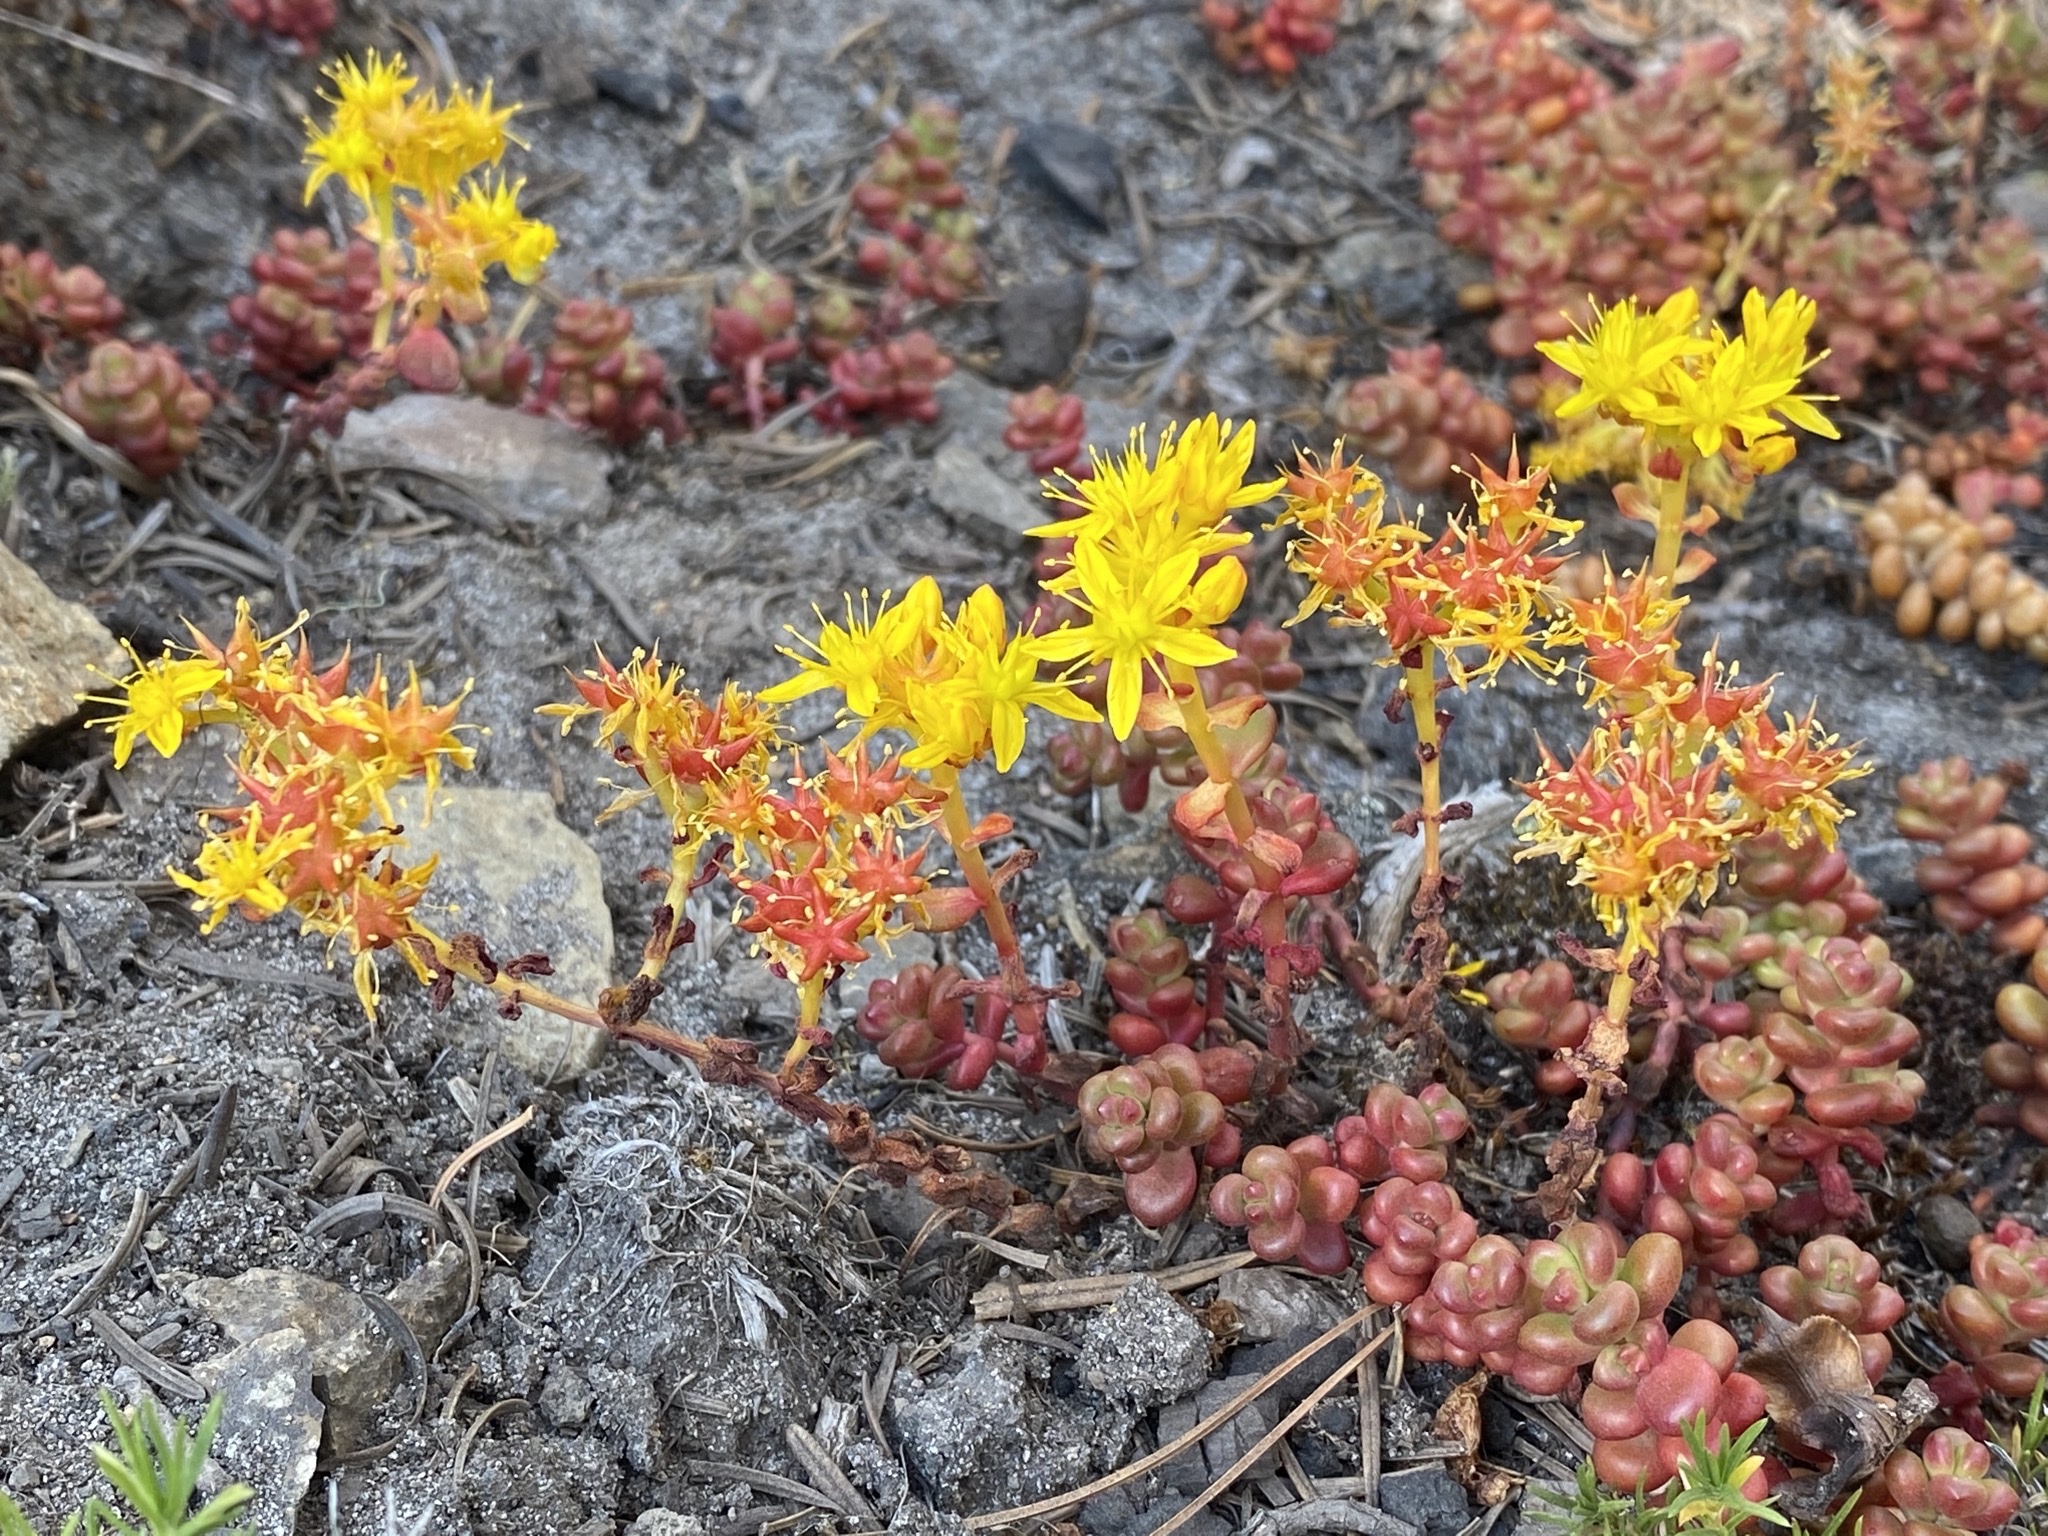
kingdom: Plantae
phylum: Tracheophyta
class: Magnoliopsida
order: Saxifragales
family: Crassulaceae
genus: Sedum
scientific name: Sedum divergens
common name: Cascade stonecrop
